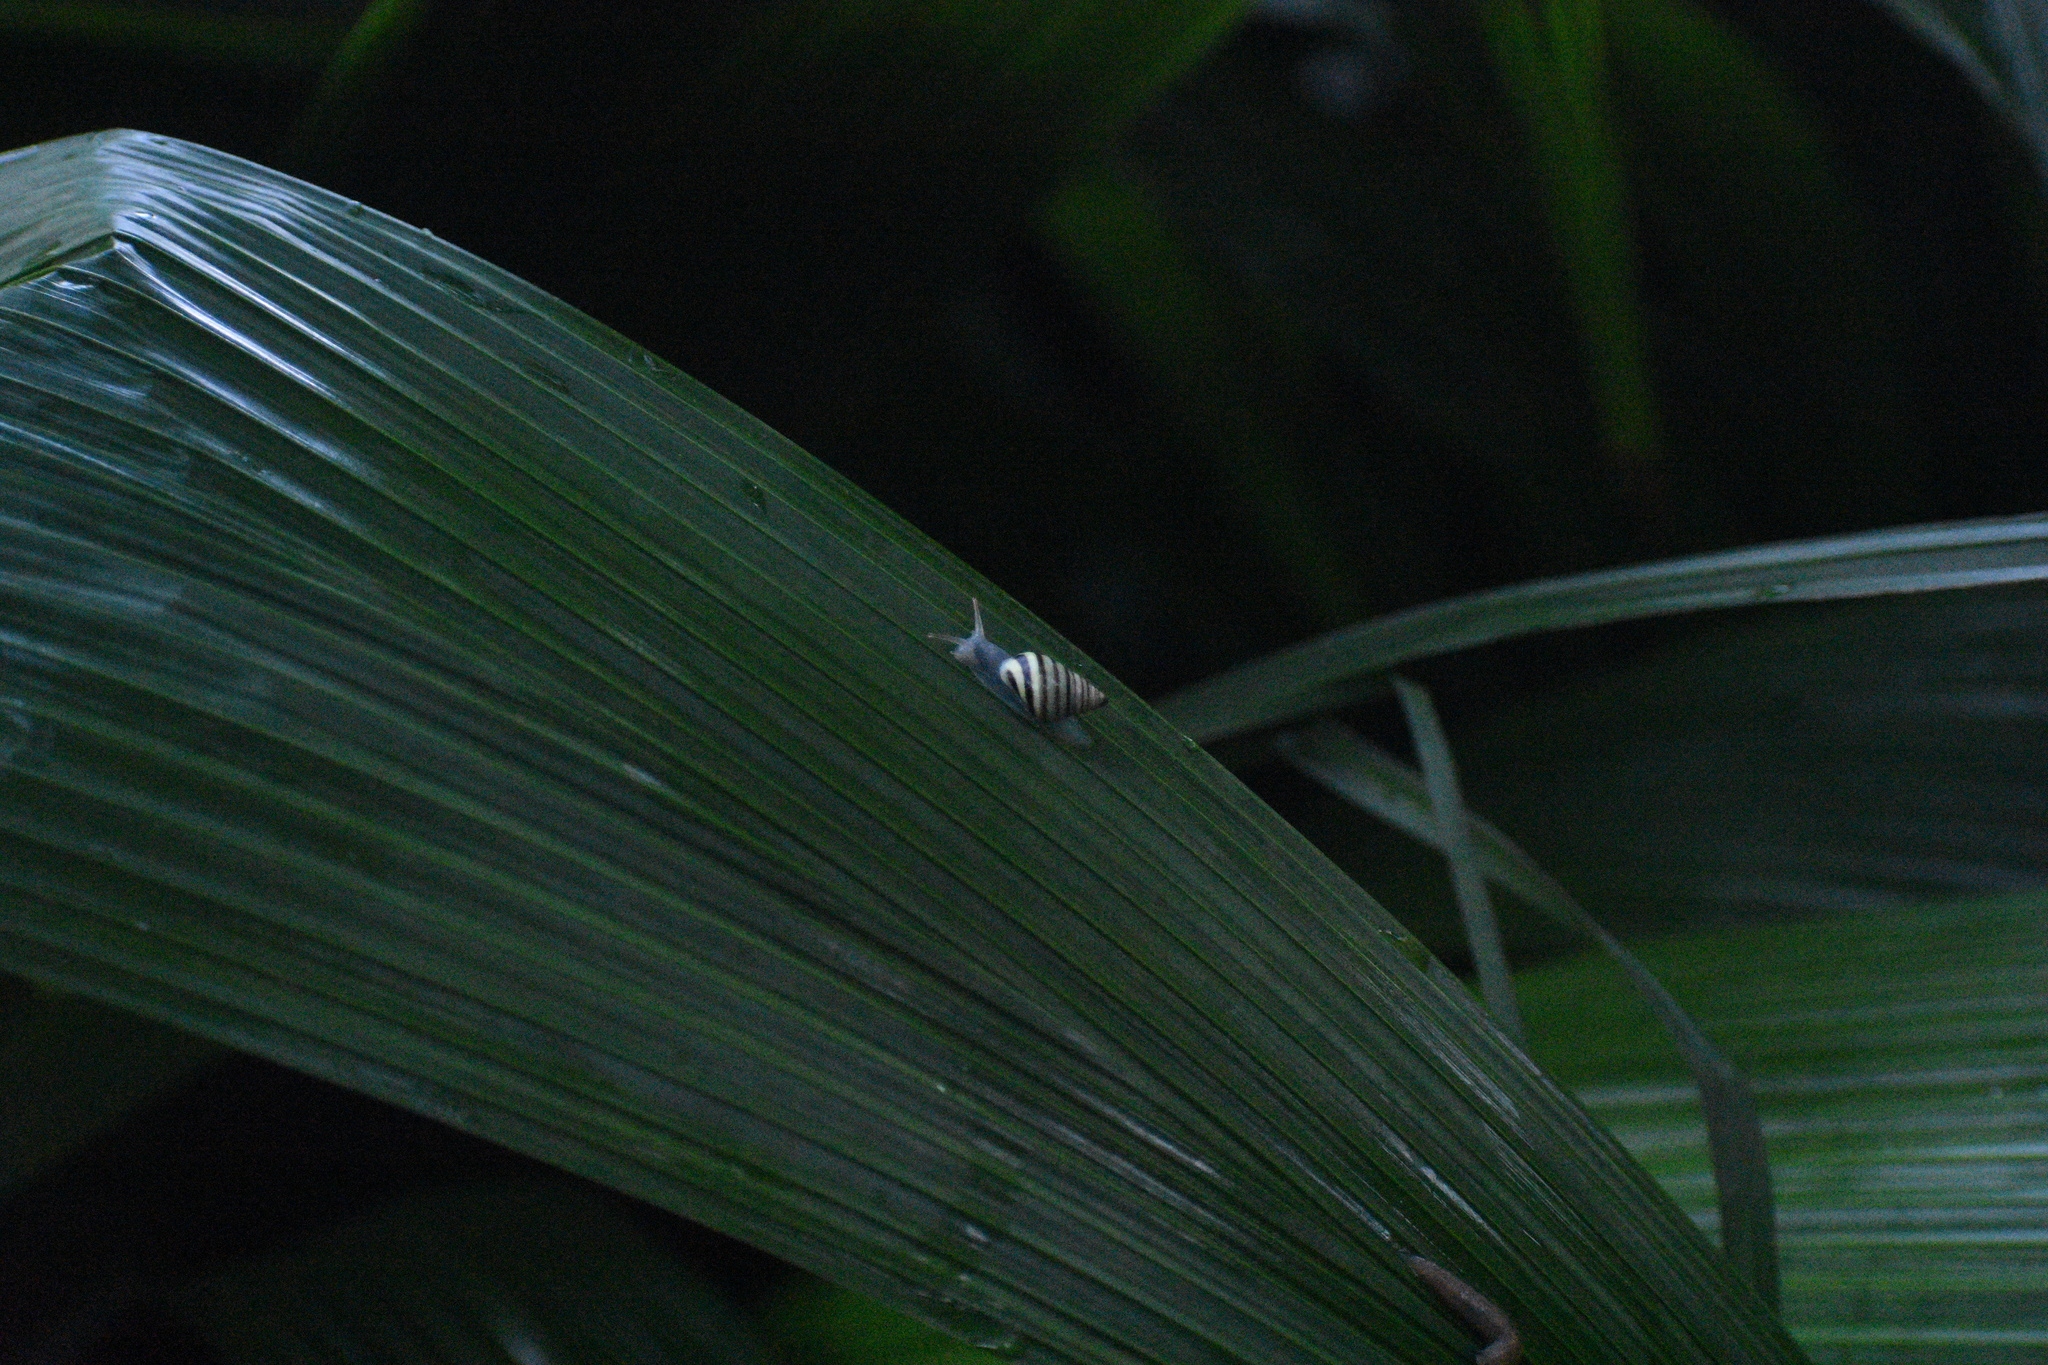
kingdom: Animalia
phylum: Mollusca
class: Gastropoda
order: Stylommatophora
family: Bulimulidae
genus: Drymaeus
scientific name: Drymaeus
